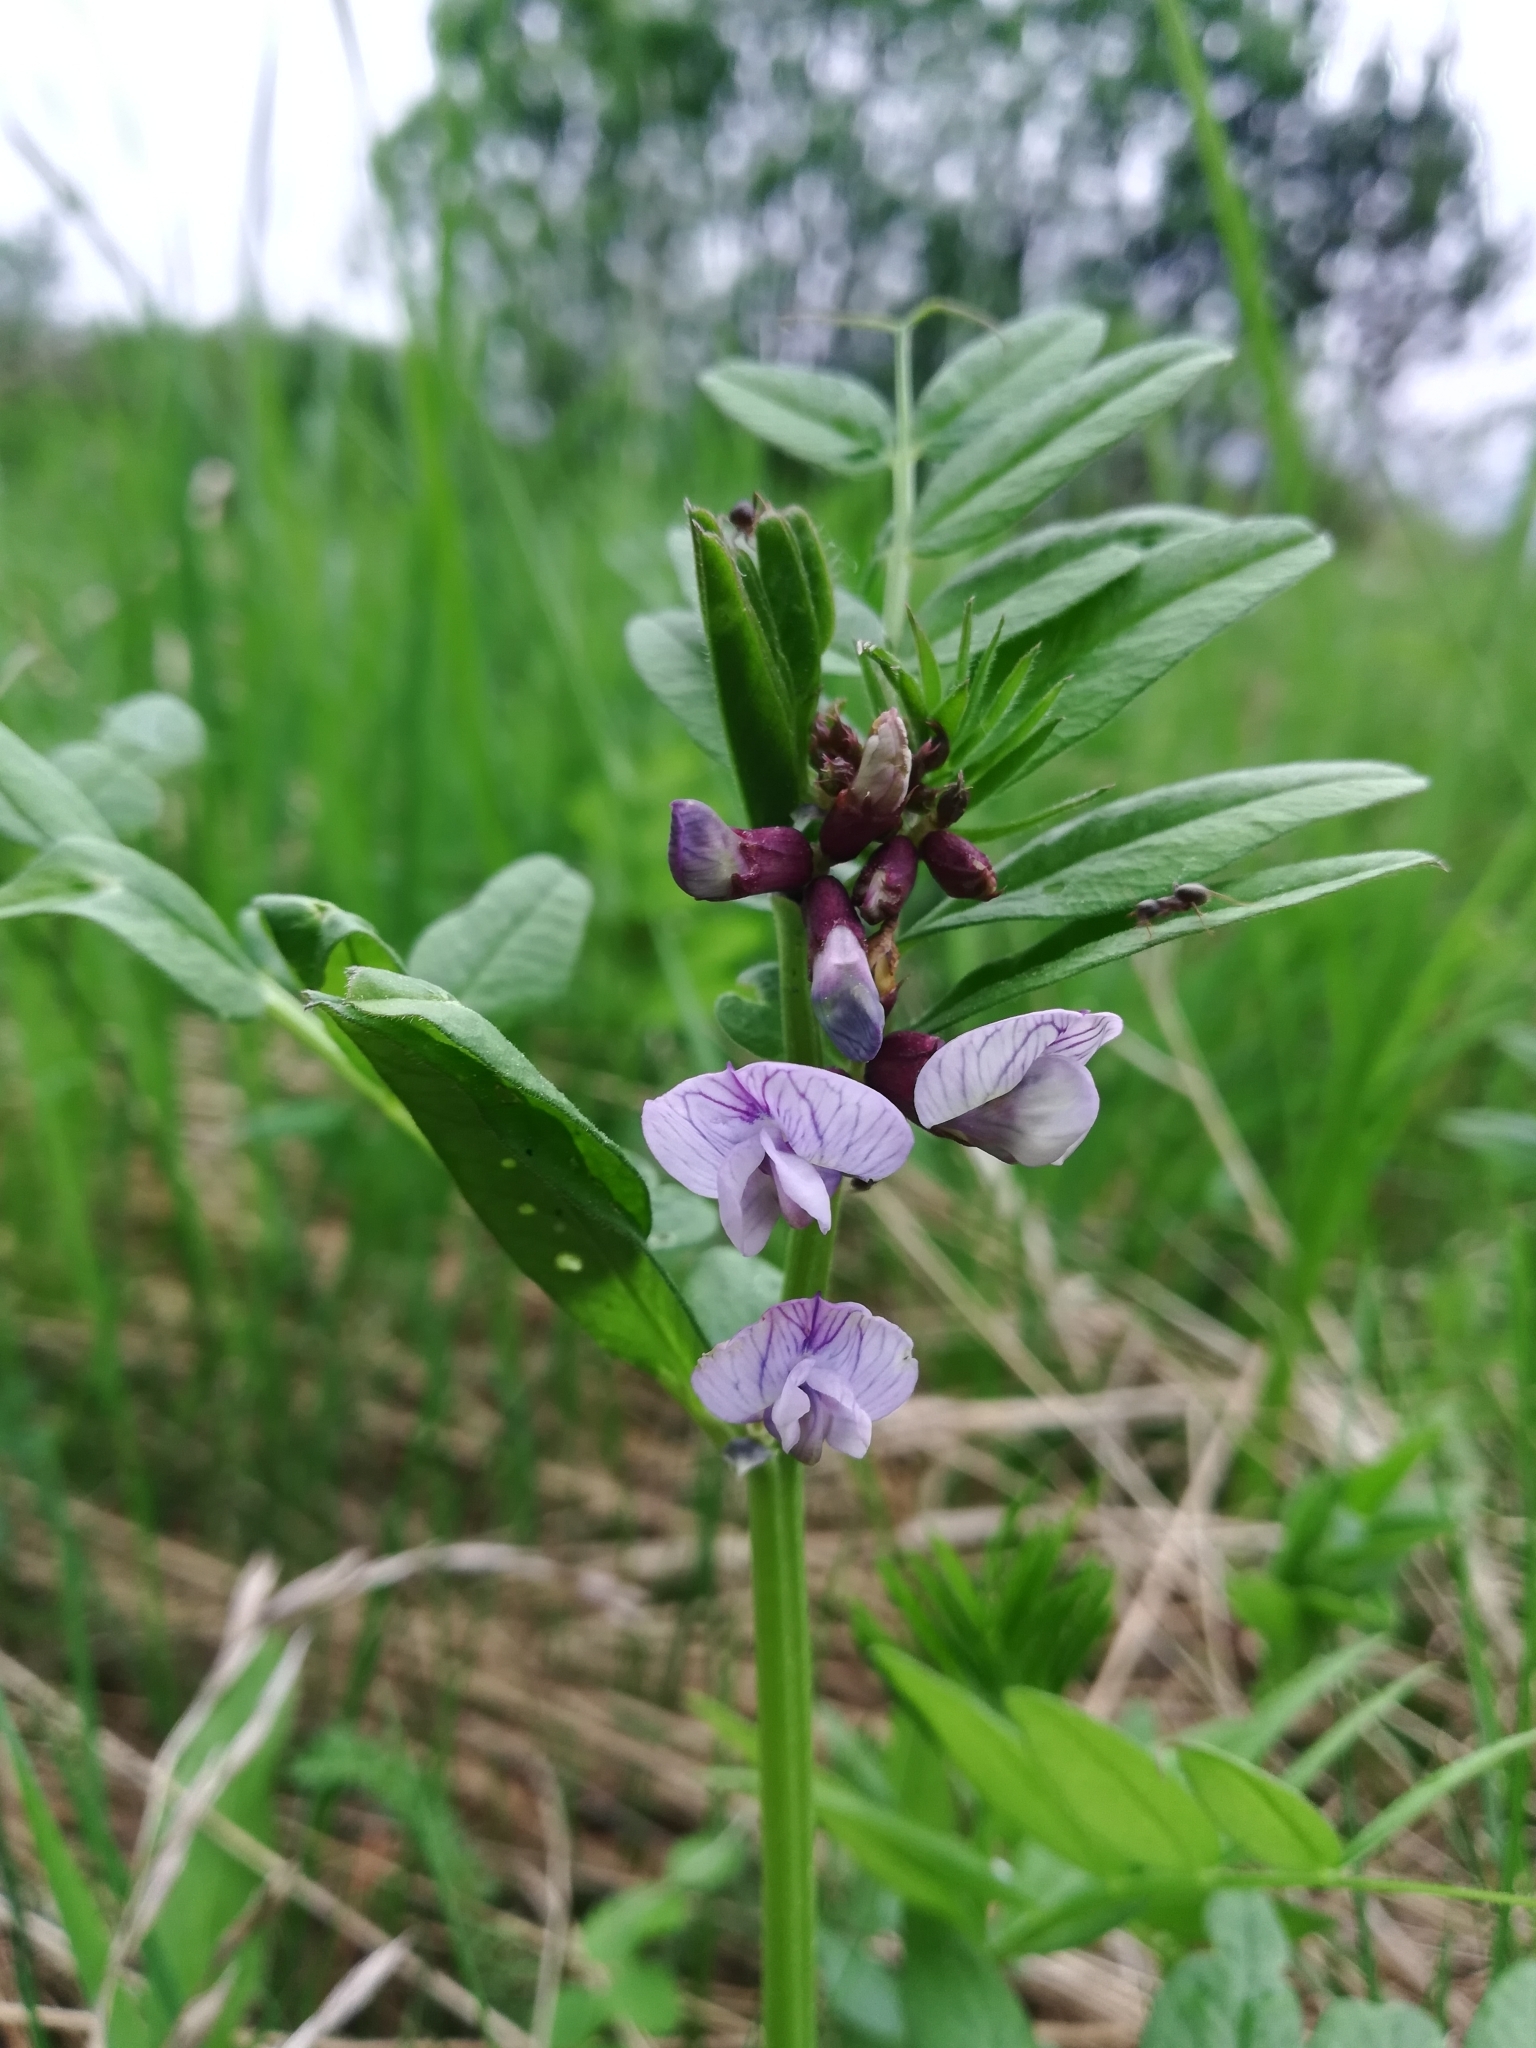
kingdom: Plantae
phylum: Tracheophyta
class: Magnoliopsida
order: Fabales
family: Fabaceae
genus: Vicia
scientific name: Vicia sepium
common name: Bush vetch
